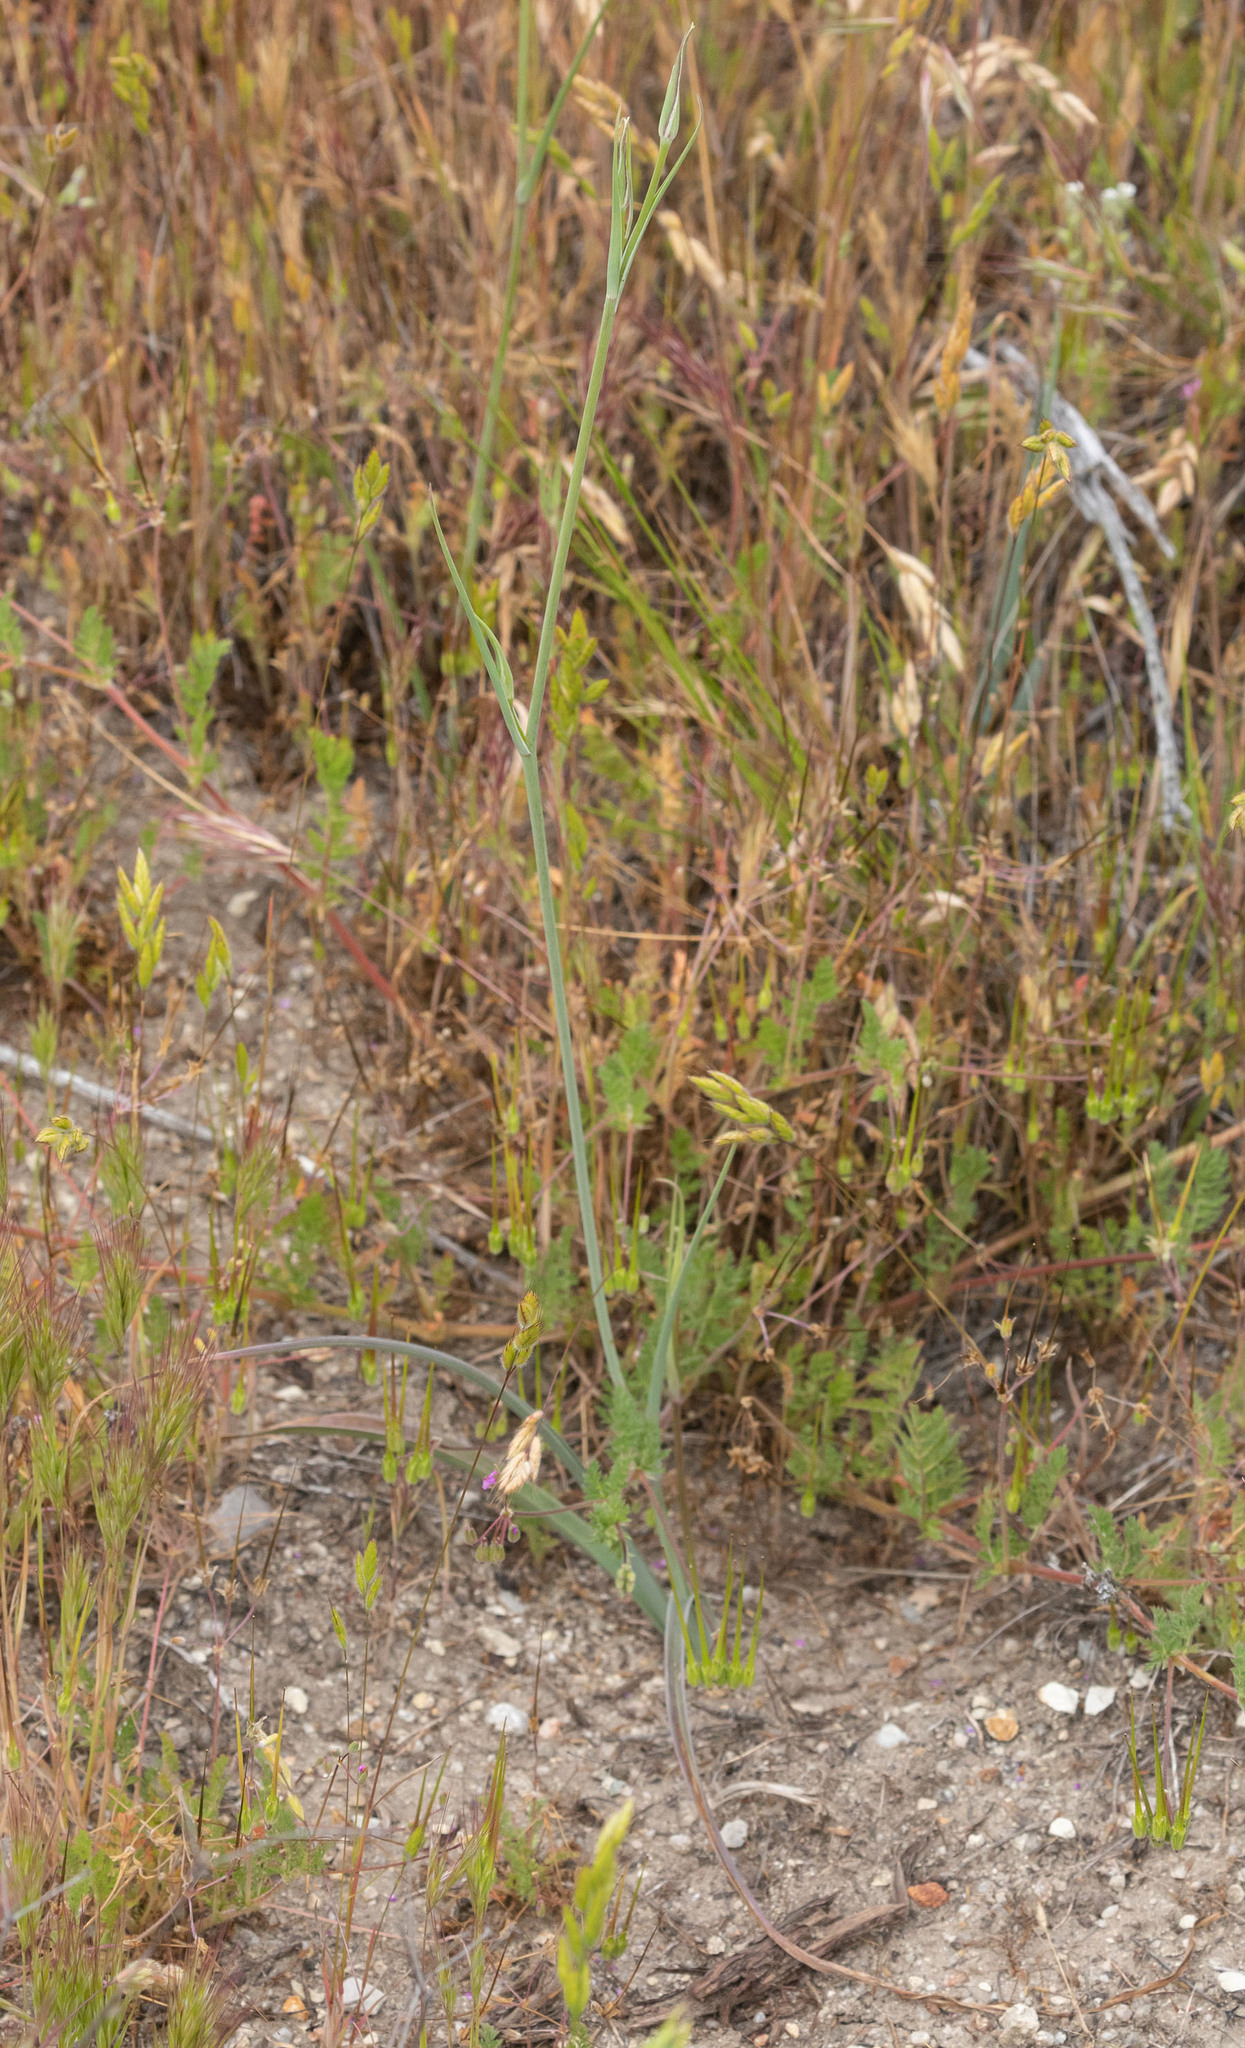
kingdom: Plantae
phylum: Tracheophyta
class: Liliopsida
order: Liliales
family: Liliaceae
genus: Calochortus
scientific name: Calochortus splendens
